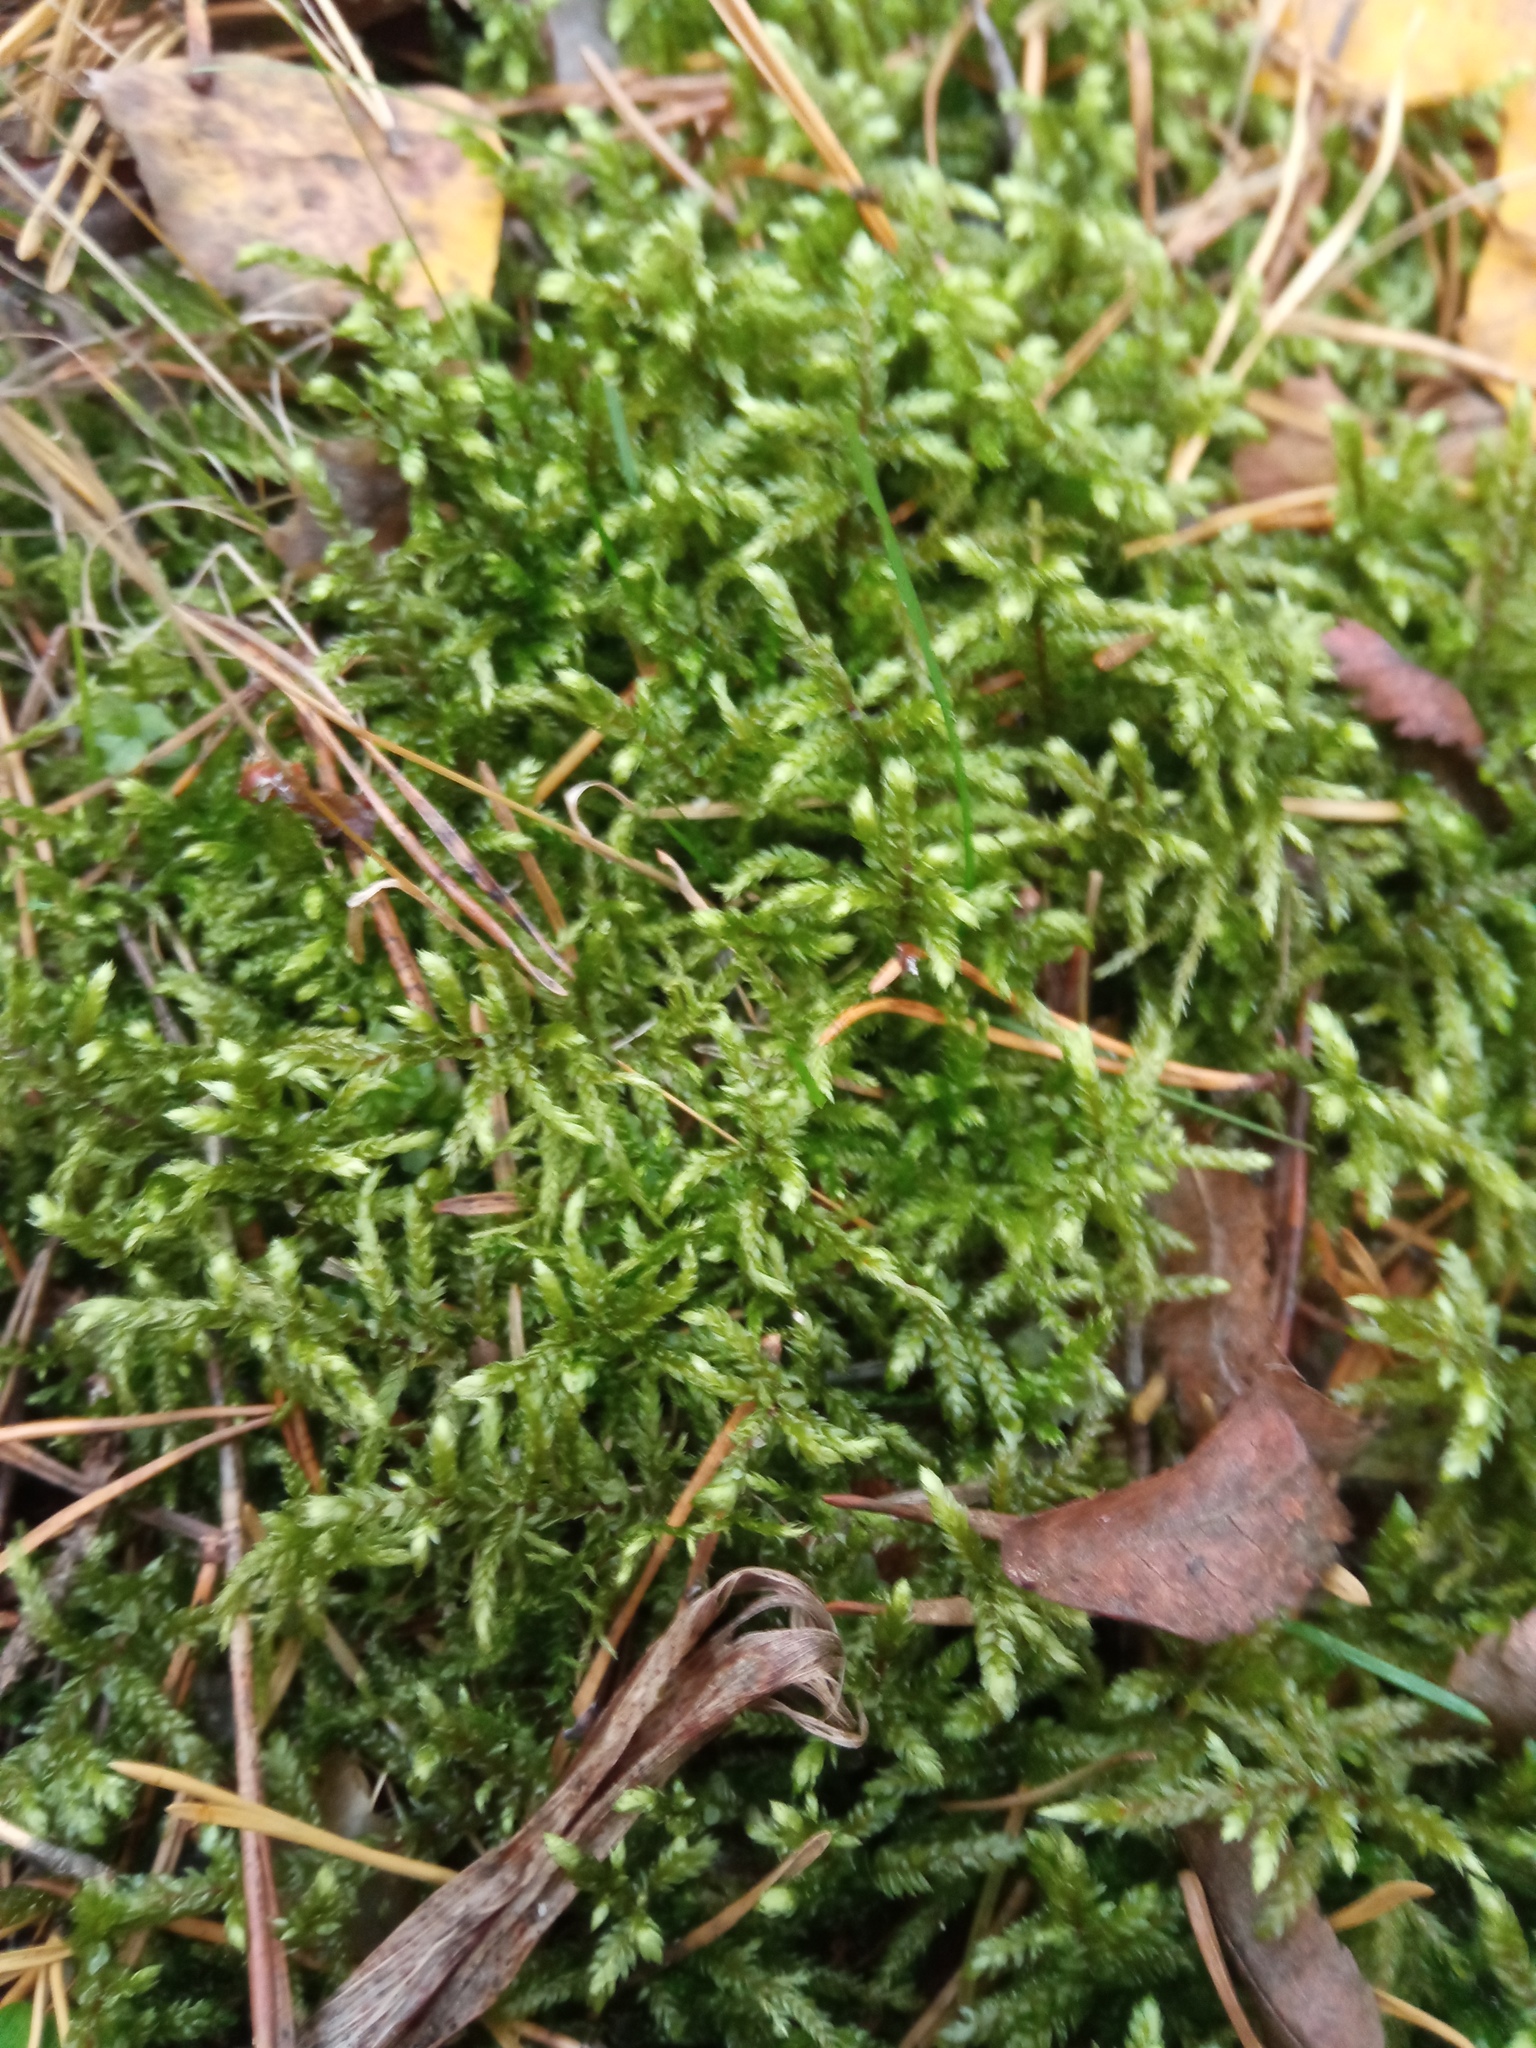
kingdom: Plantae
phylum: Bryophyta
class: Bryopsida
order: Hypnales
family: Hylocomiaceae
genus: Pleurozium
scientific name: Pleurozium schreberi
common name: Red-stemmed feather moss
